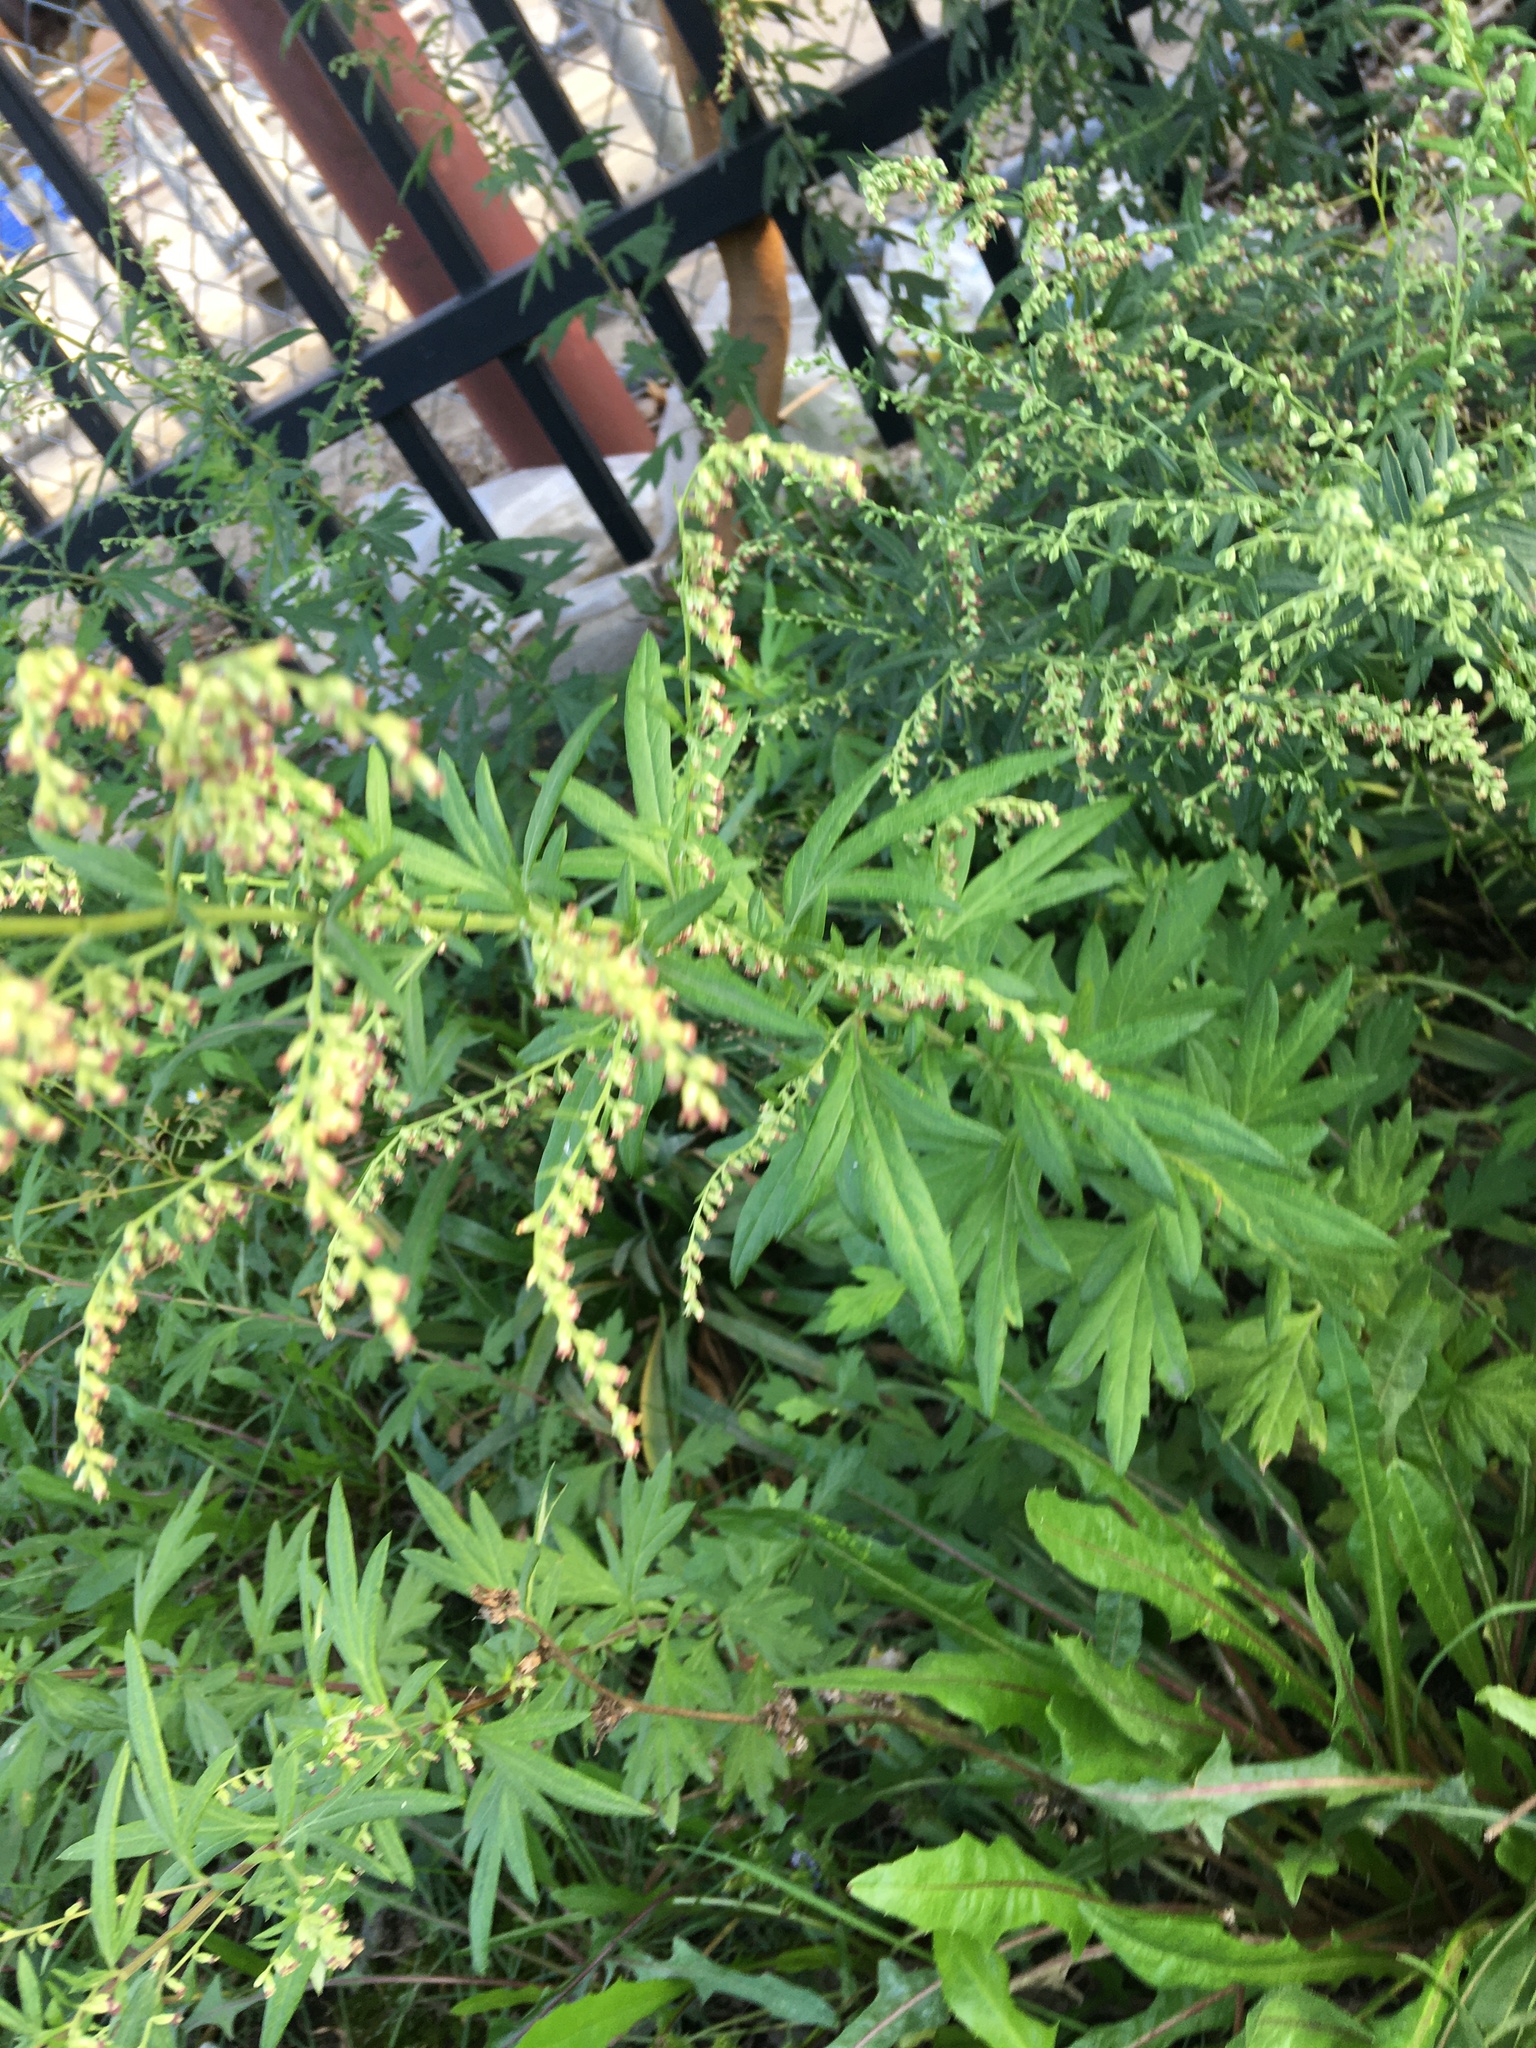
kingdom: Plantae
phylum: Tracheophyta
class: Magnoliopsida
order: Asterales
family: Asteraceae
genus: Artemisia
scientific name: Artemisia vulgaris
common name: Mugwort
